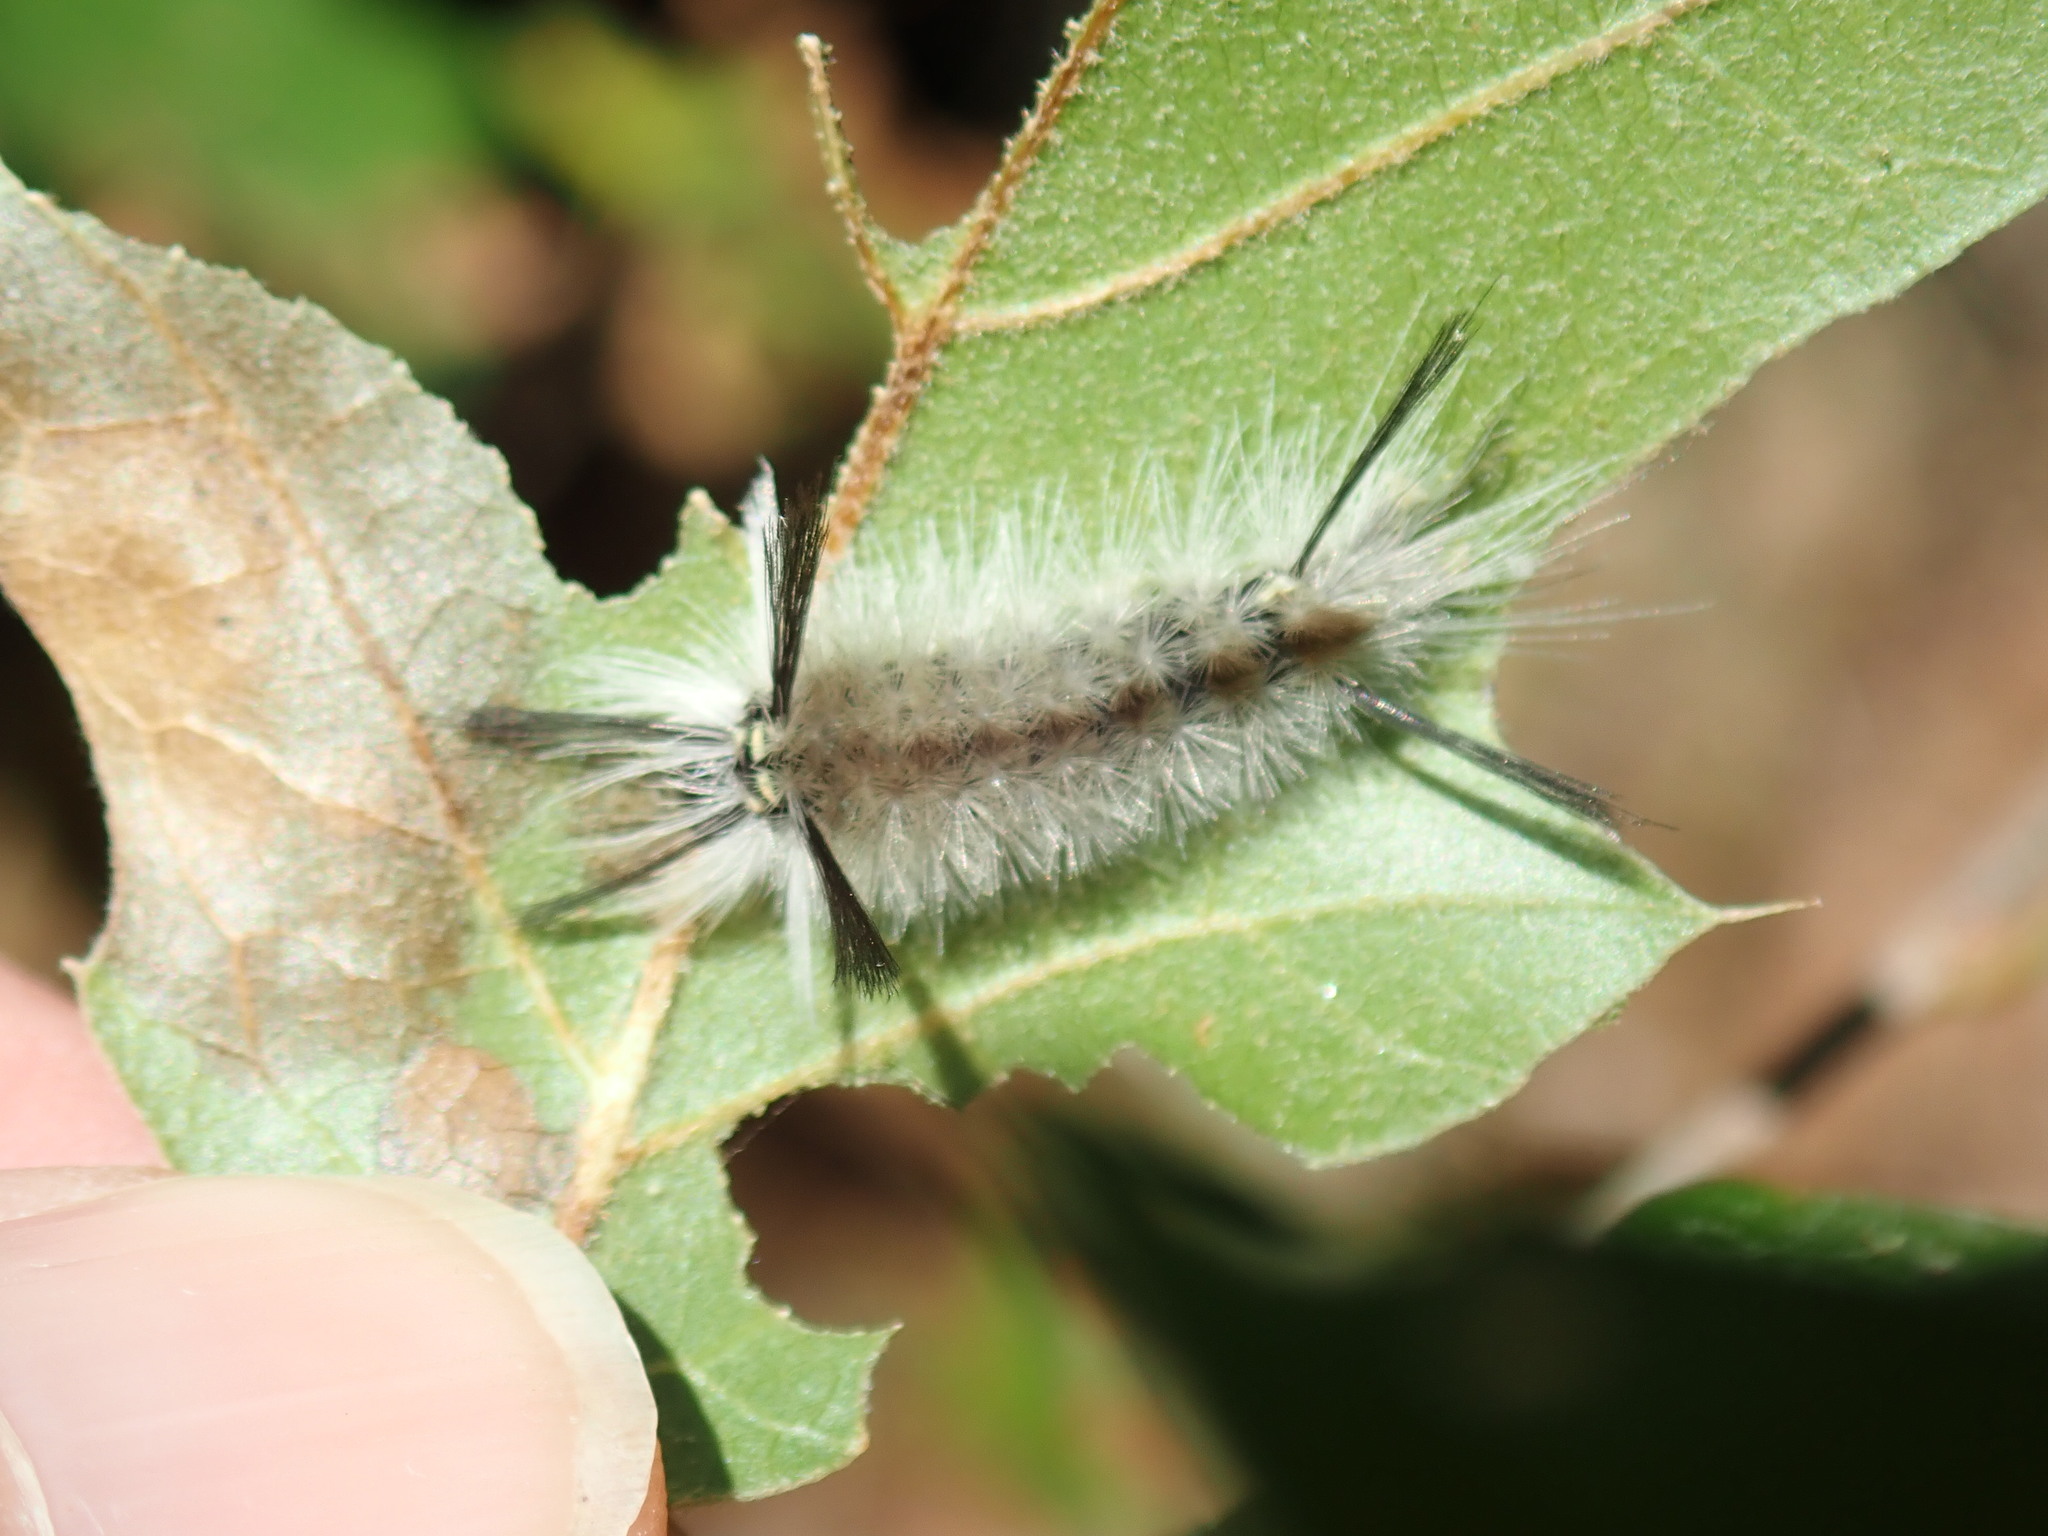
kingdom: Animalia
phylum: Arthropoda
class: Insecta
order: Lepidoptera
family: Erebidae
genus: Halysidota
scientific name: Halysidota tessellaris
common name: Banded tussock moth
